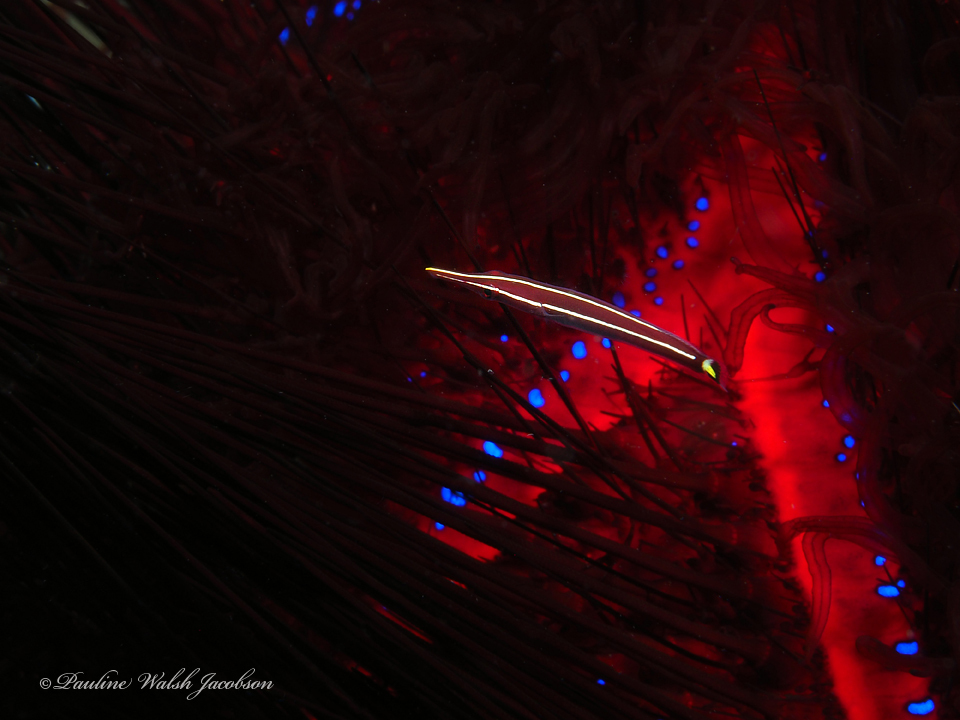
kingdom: Animalia
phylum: Chordata
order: Gobiesociformes
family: Gobiesocidae
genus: Diademichthys
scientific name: Diademichthys lineatus
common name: Urchin clingfish
